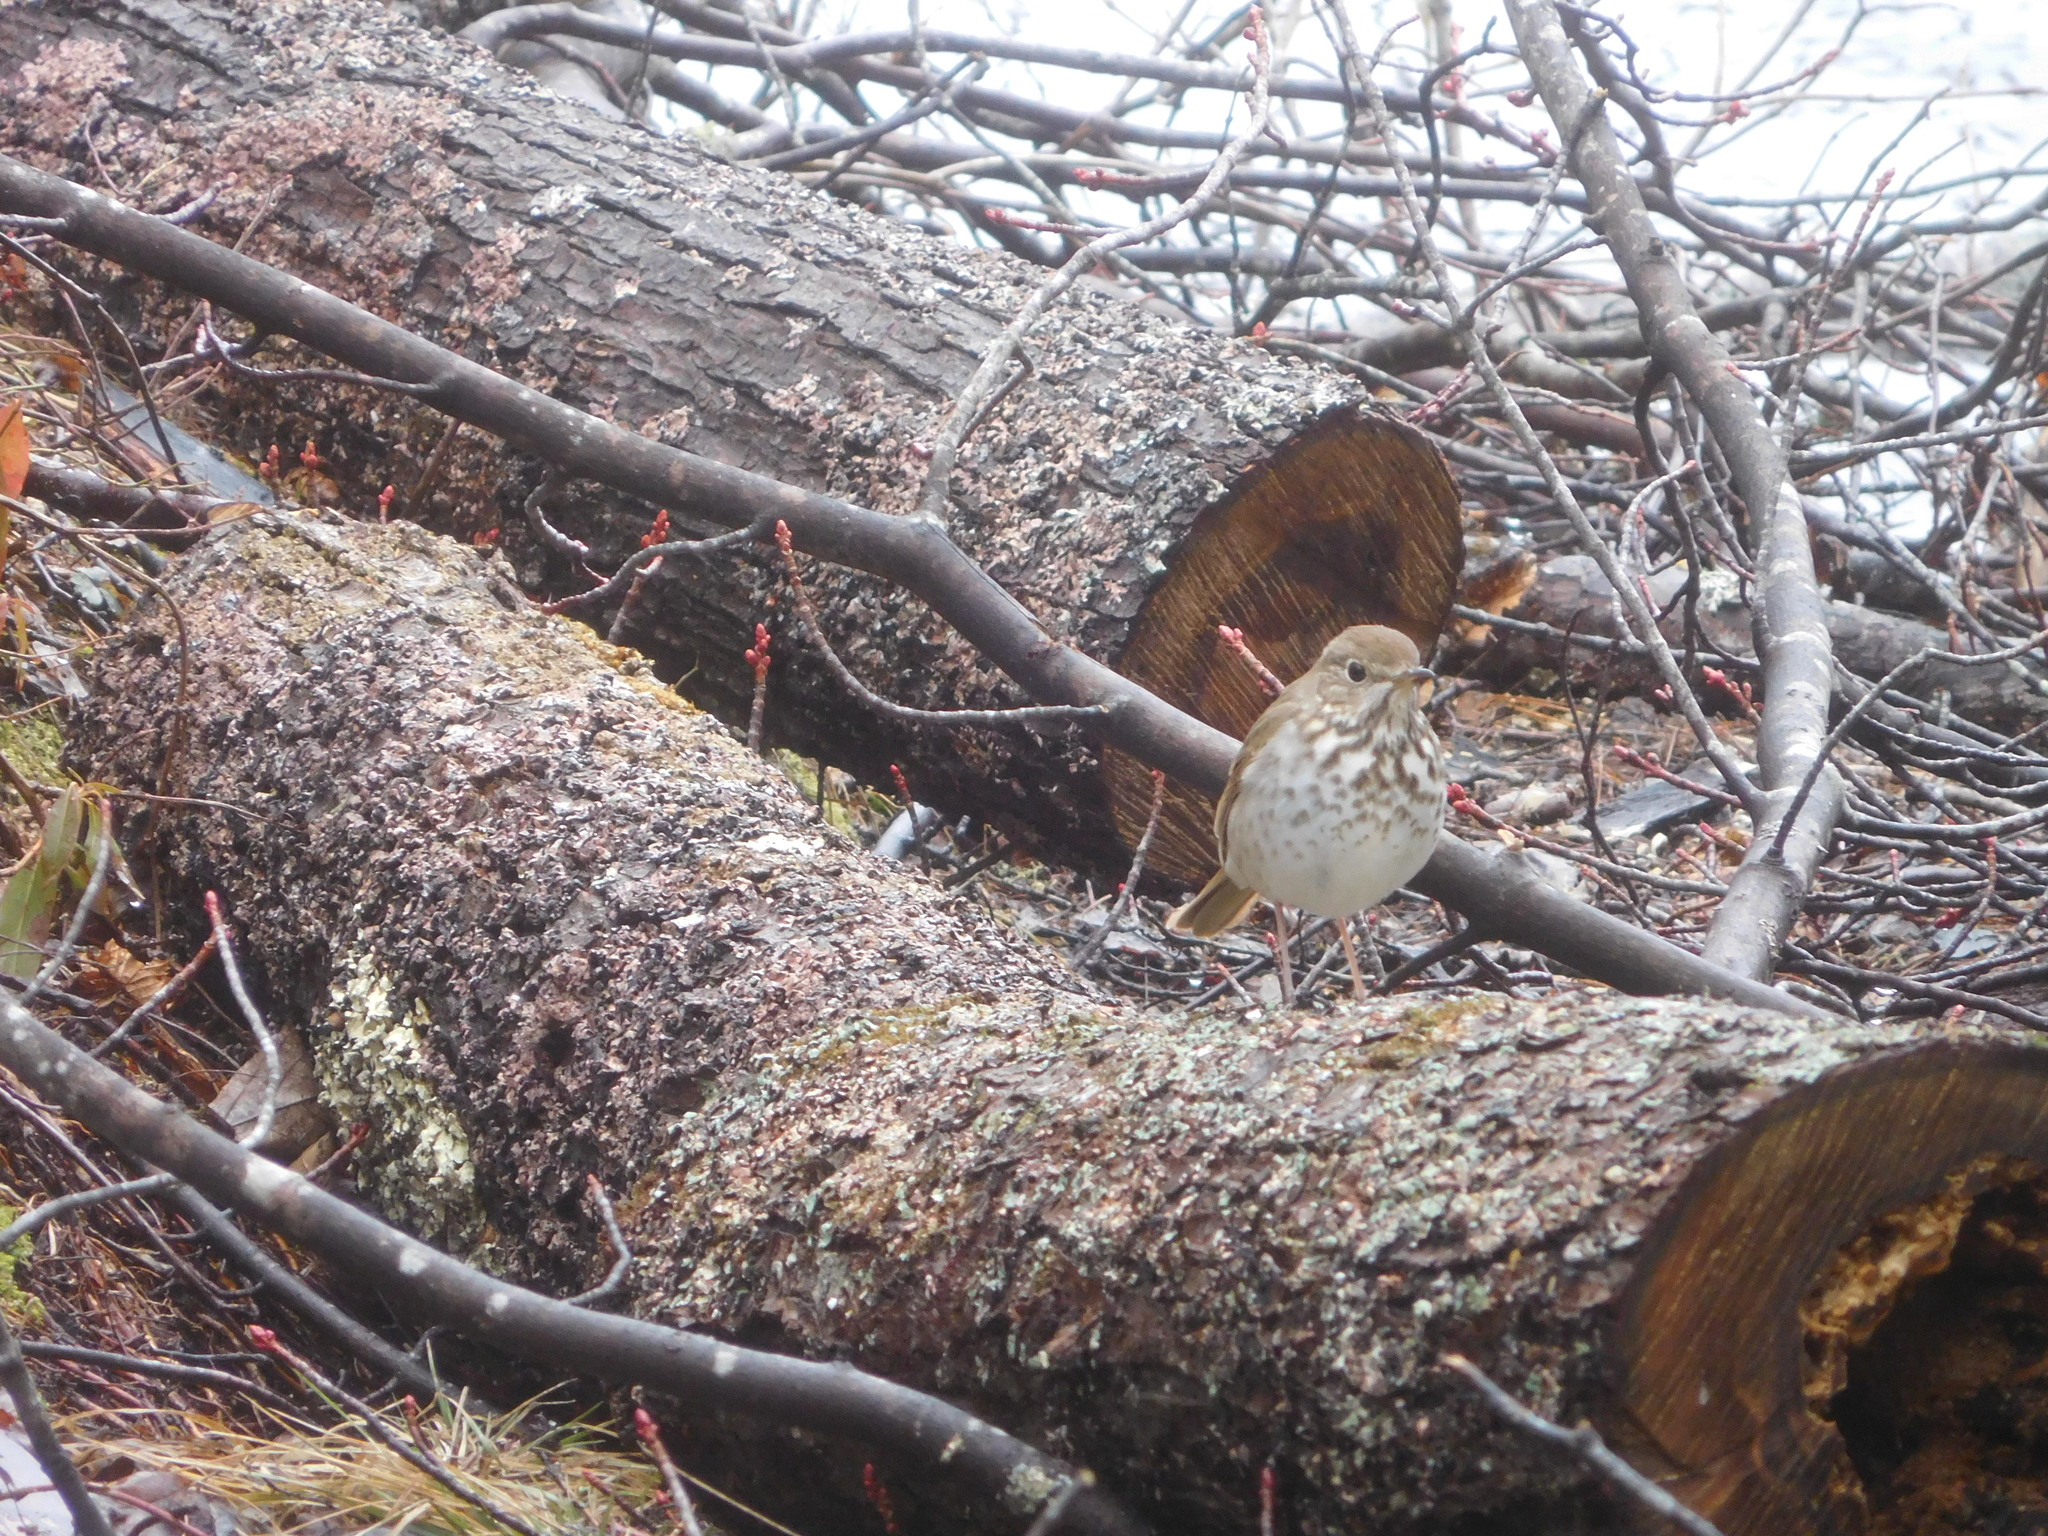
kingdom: Animalia
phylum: Chordata
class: Aves
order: Passeriformes
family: Turdidae
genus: Catharus
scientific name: Catharus guttatus
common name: Hermit thrush
